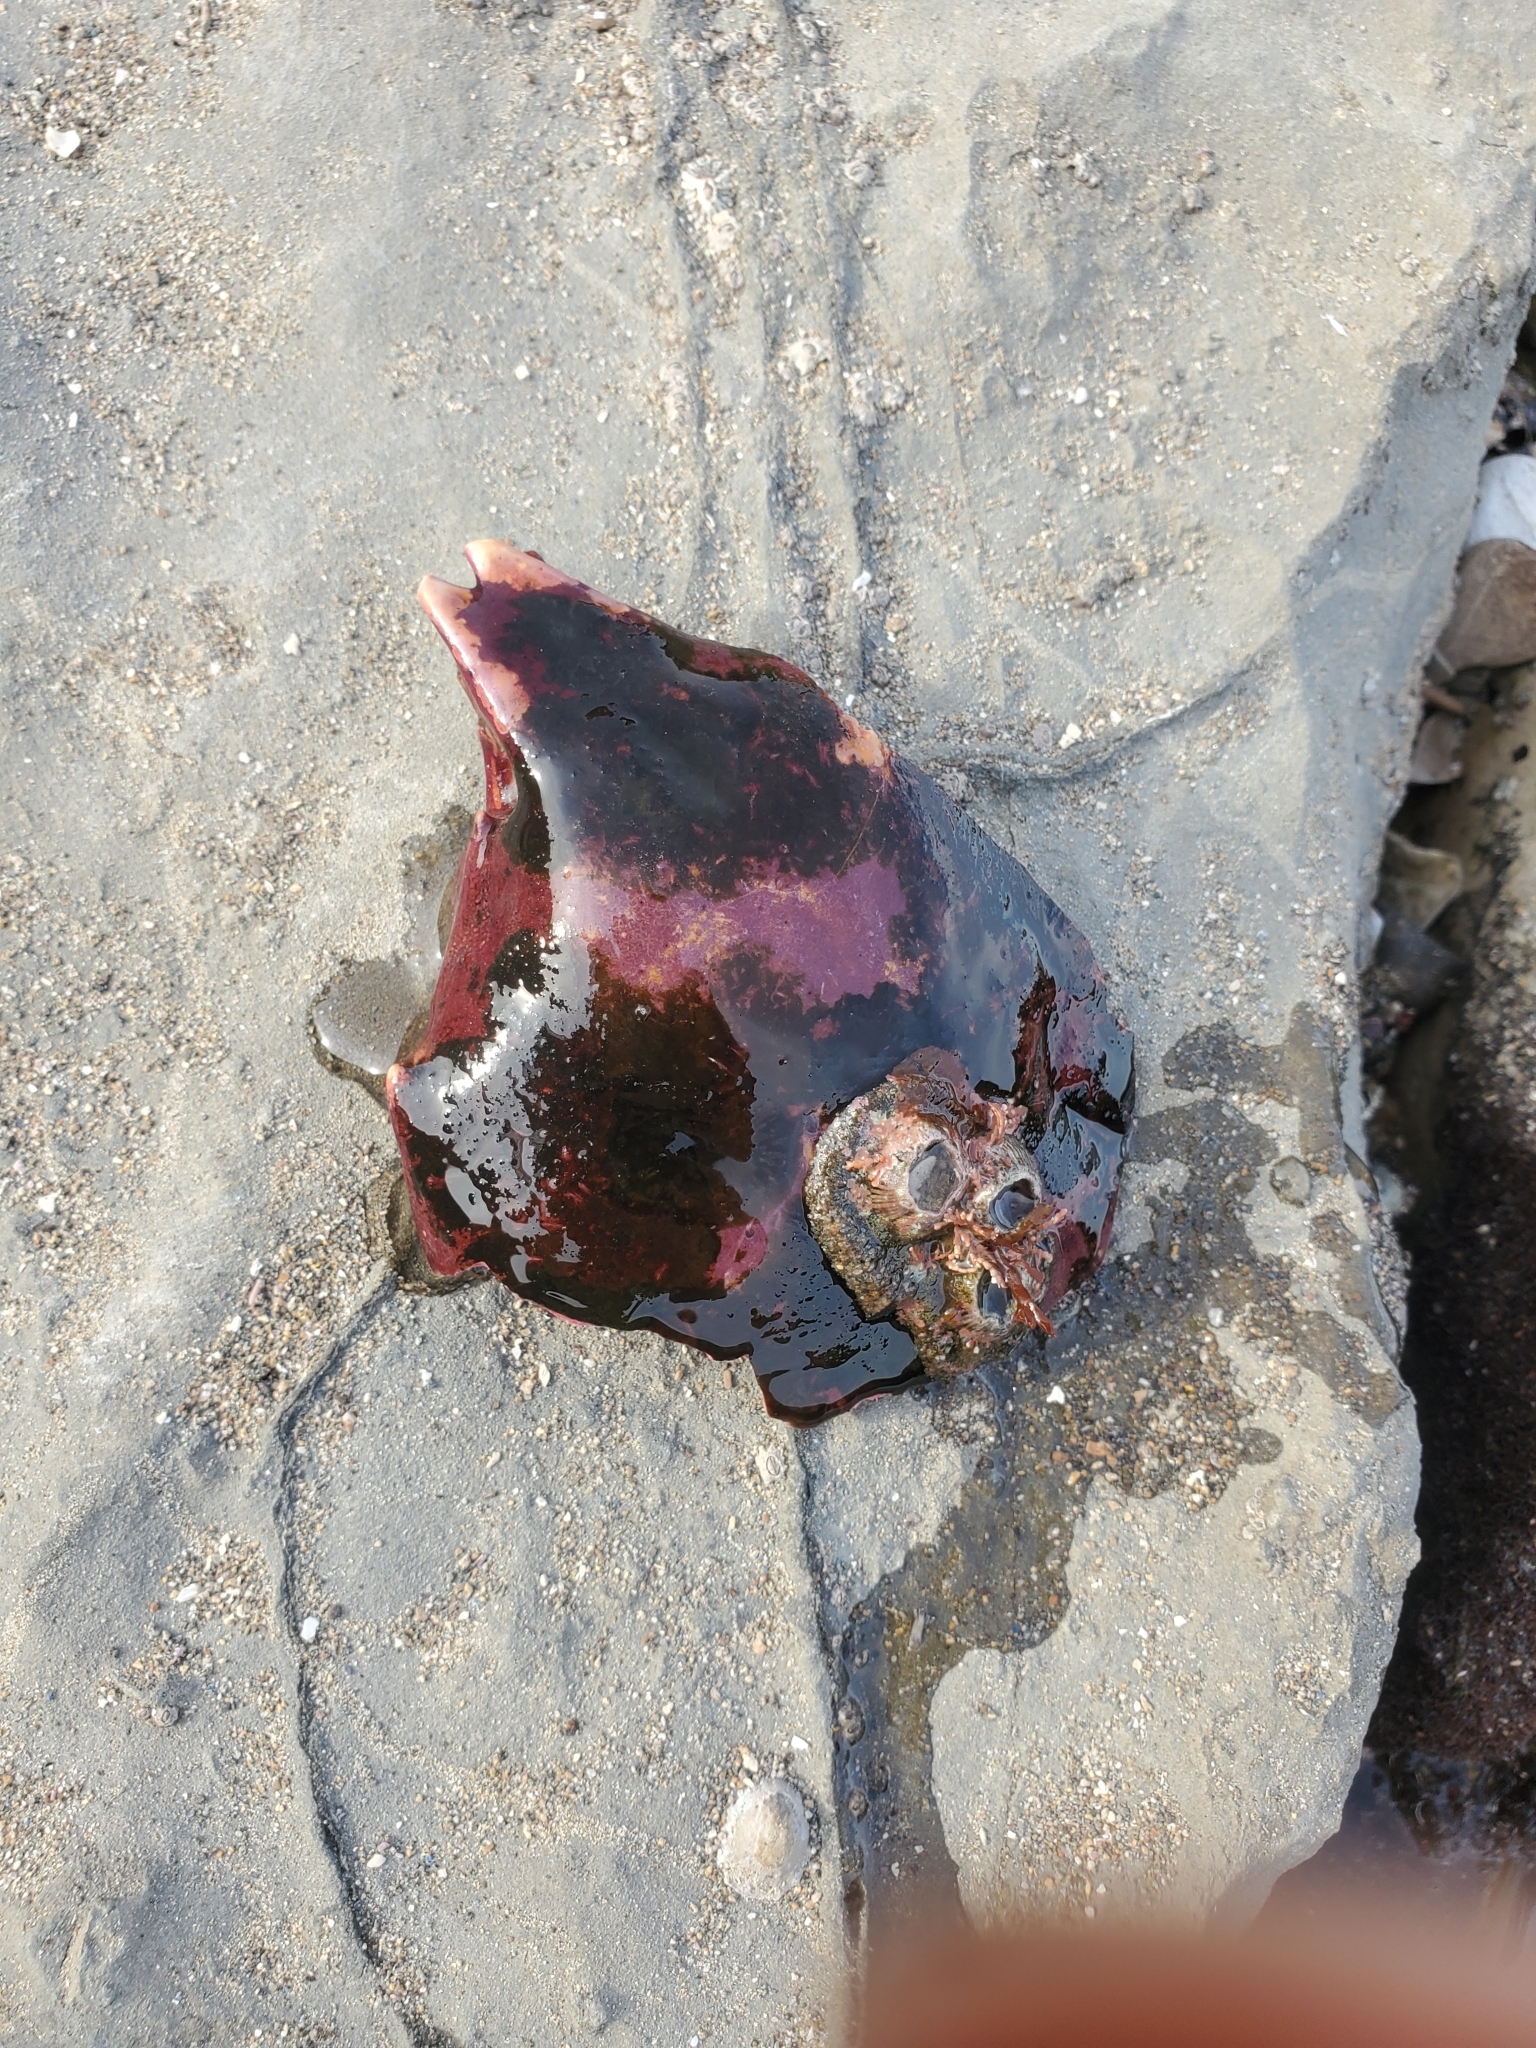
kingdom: Animalia
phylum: Arthropoda
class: Malacostraca
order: Decapoda
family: Epialtidae
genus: Taliepus
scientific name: Taliepus nuttallii
